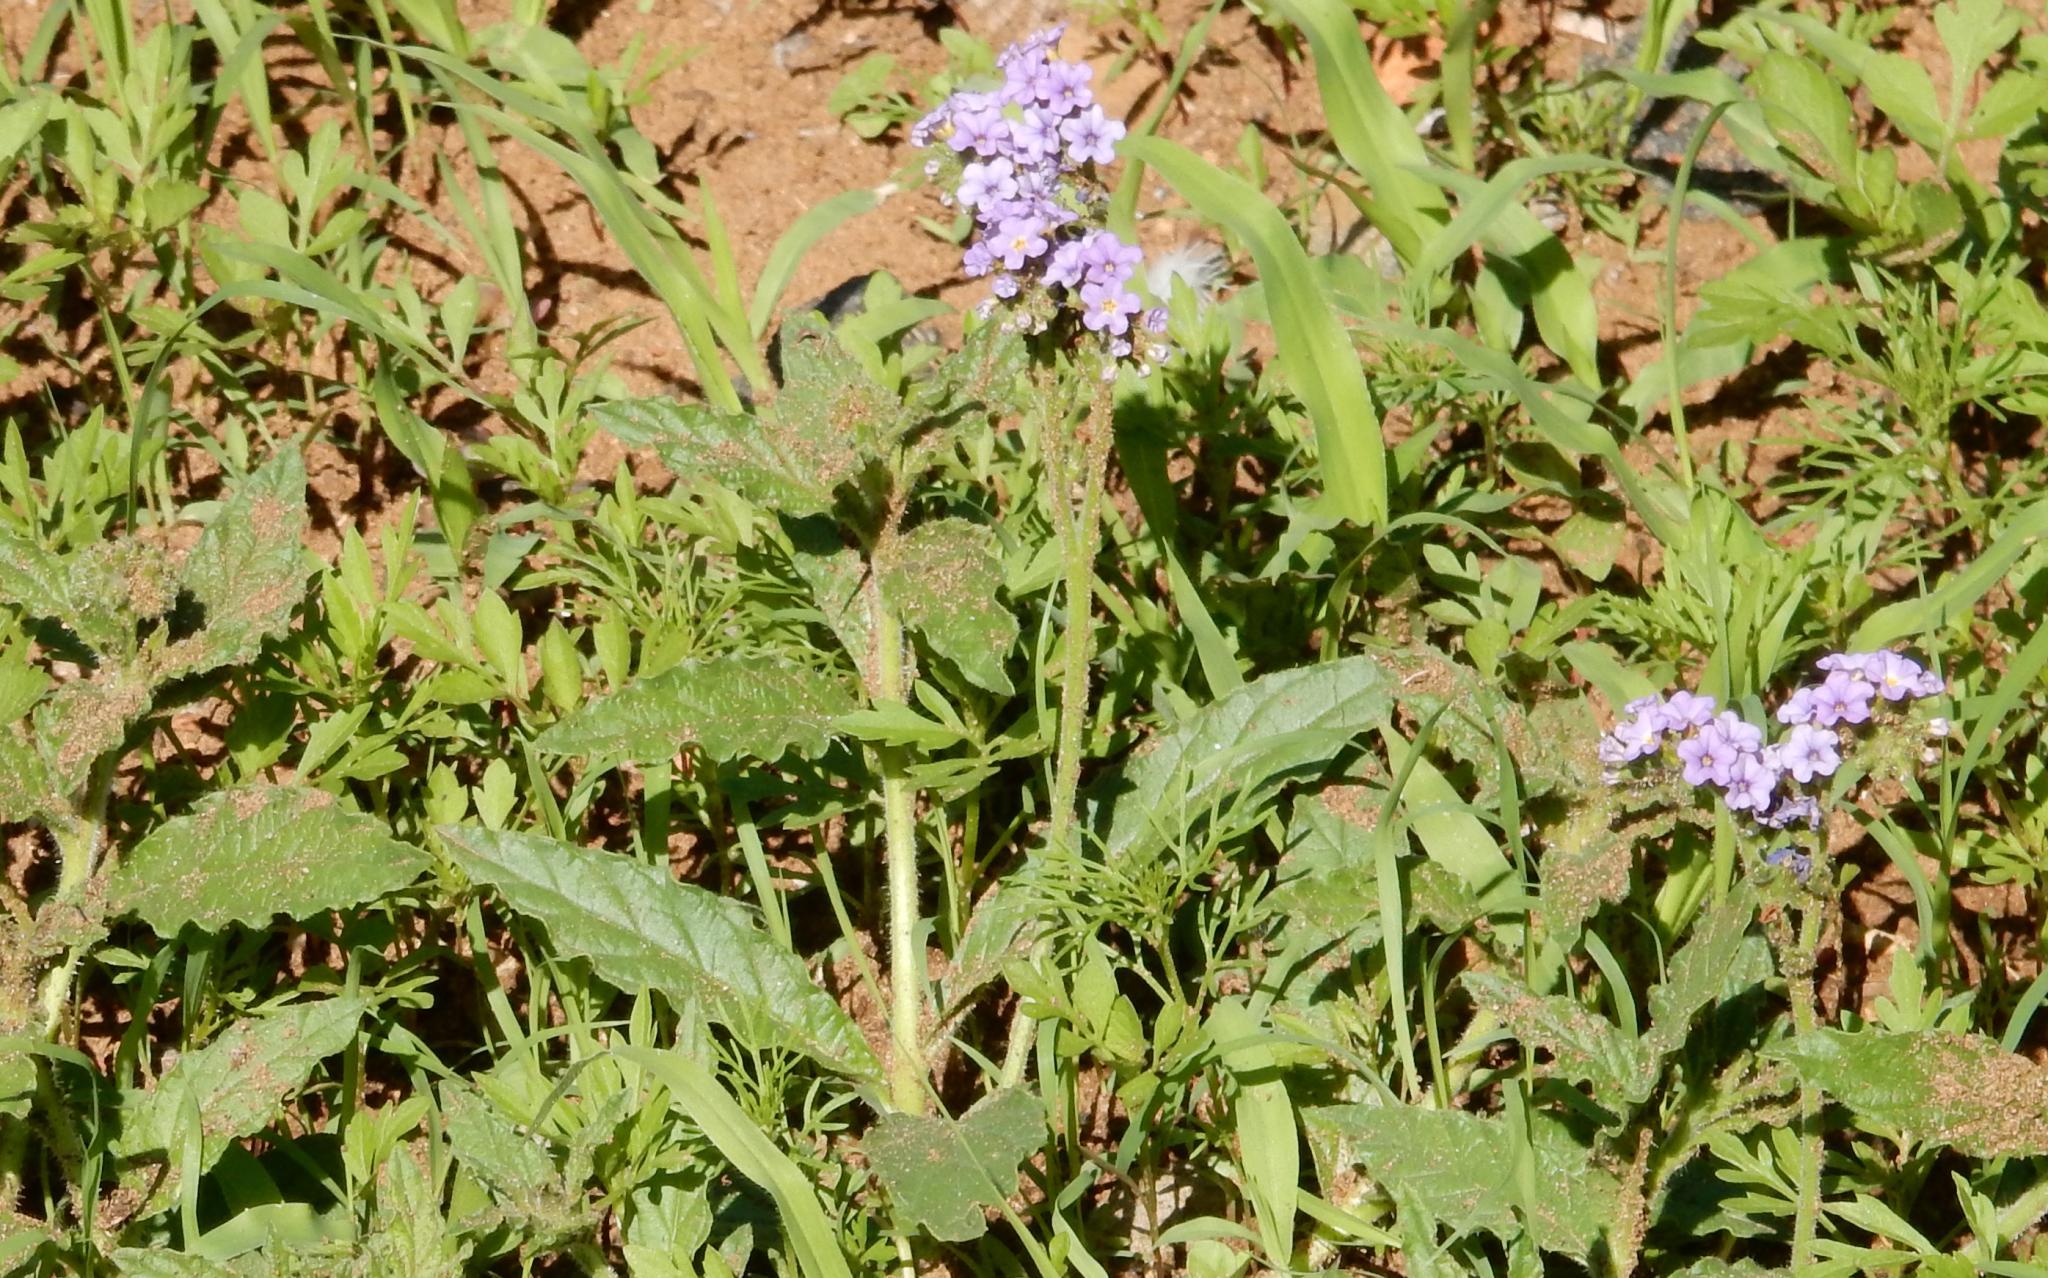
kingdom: Plantae
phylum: Tracheophyta
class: Magnoliopsida
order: Boraginales
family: Heliotropiaceae
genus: Heliotropium
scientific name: Heliotropium amplexicaule
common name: Clasping heliotrope
